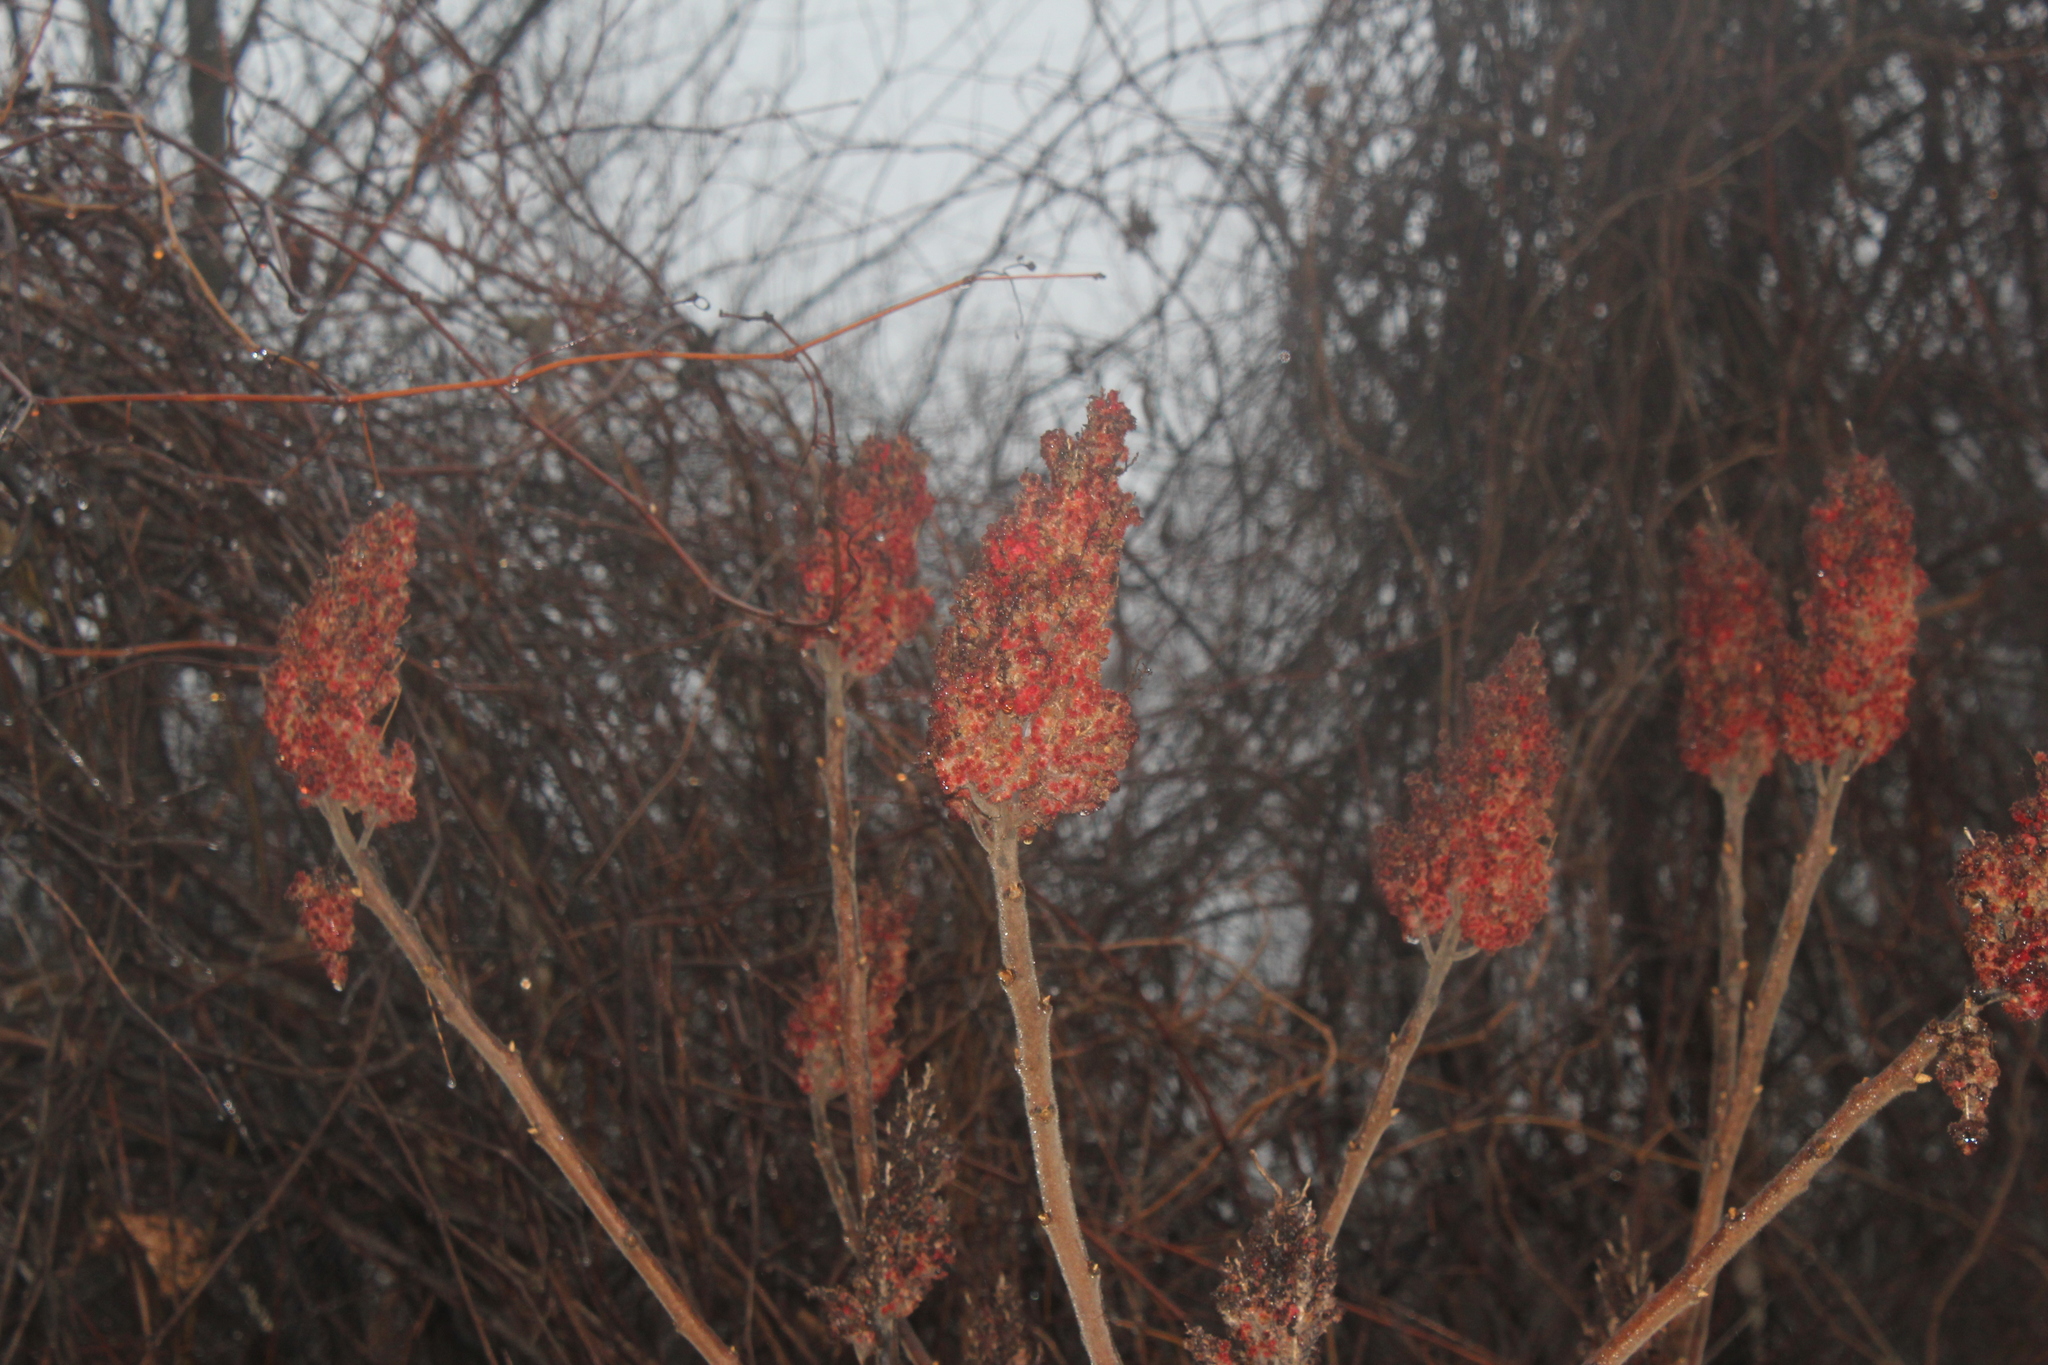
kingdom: Plantae
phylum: Tracheophyta
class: Magnoliopsida
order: Sapindales
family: Anacardiaceae
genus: Rhus
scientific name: Rhus typhina
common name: Staghorn sumac
